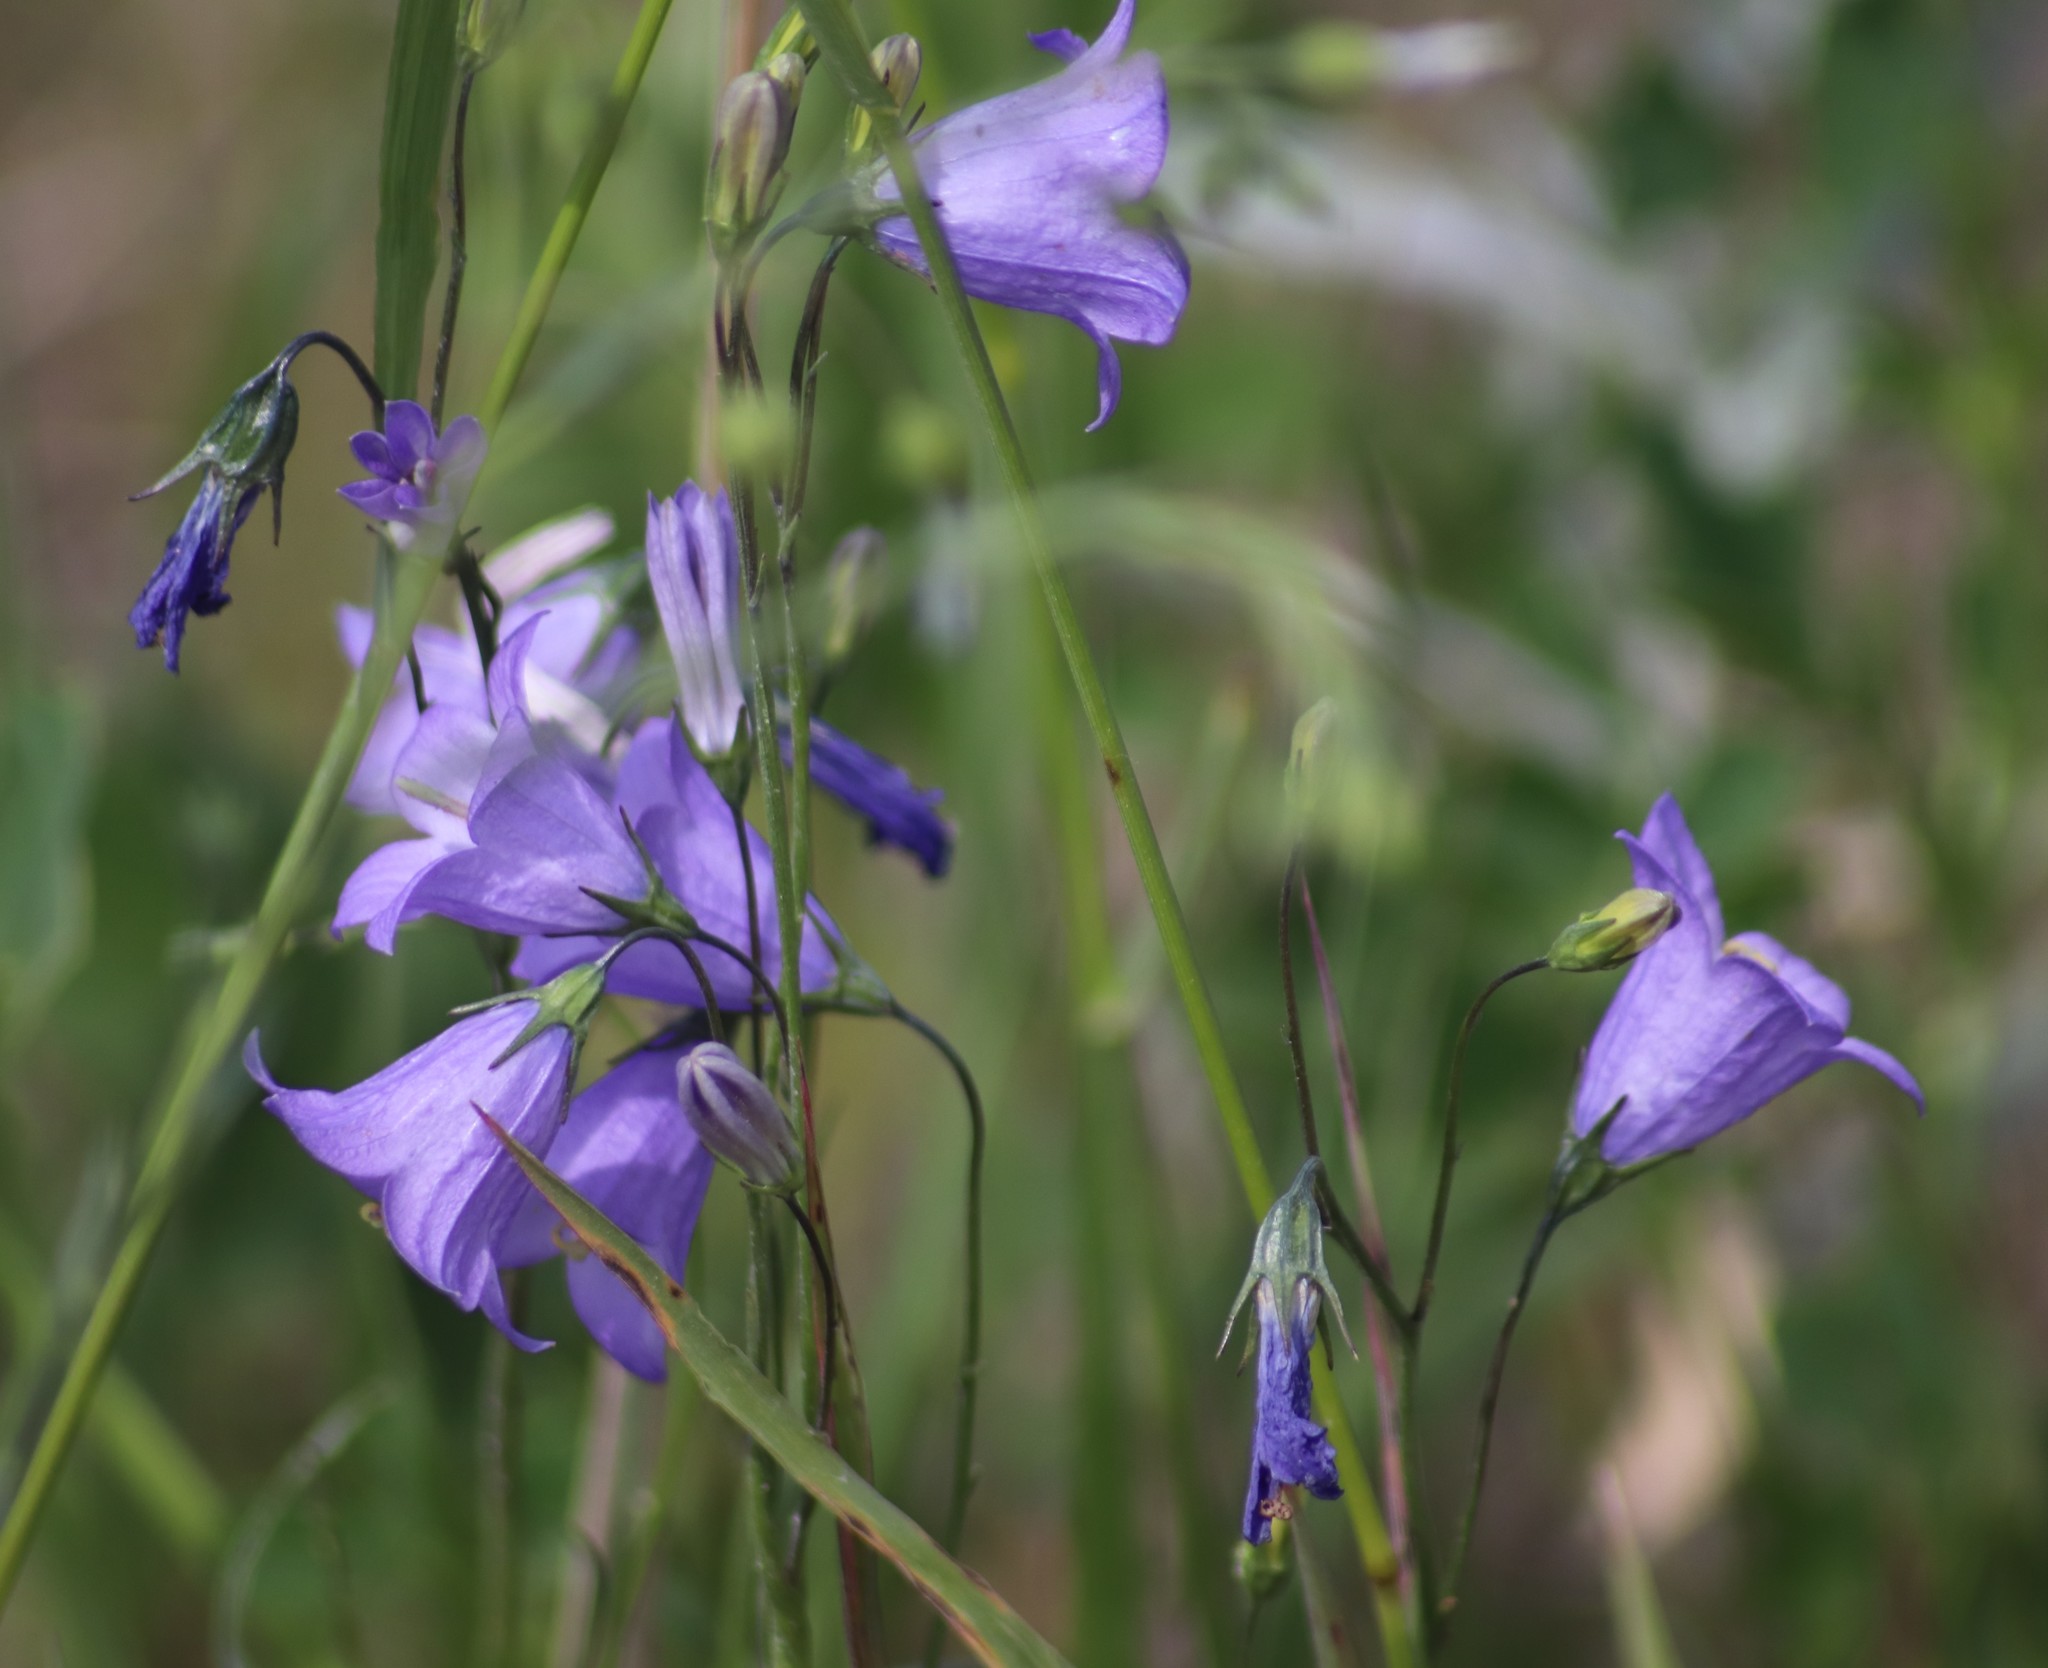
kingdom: Plantae
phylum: Tracheophyta
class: Magnoliopsida
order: Asterales
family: Campanulaceae
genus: Campanula
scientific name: Campanula petiolata
